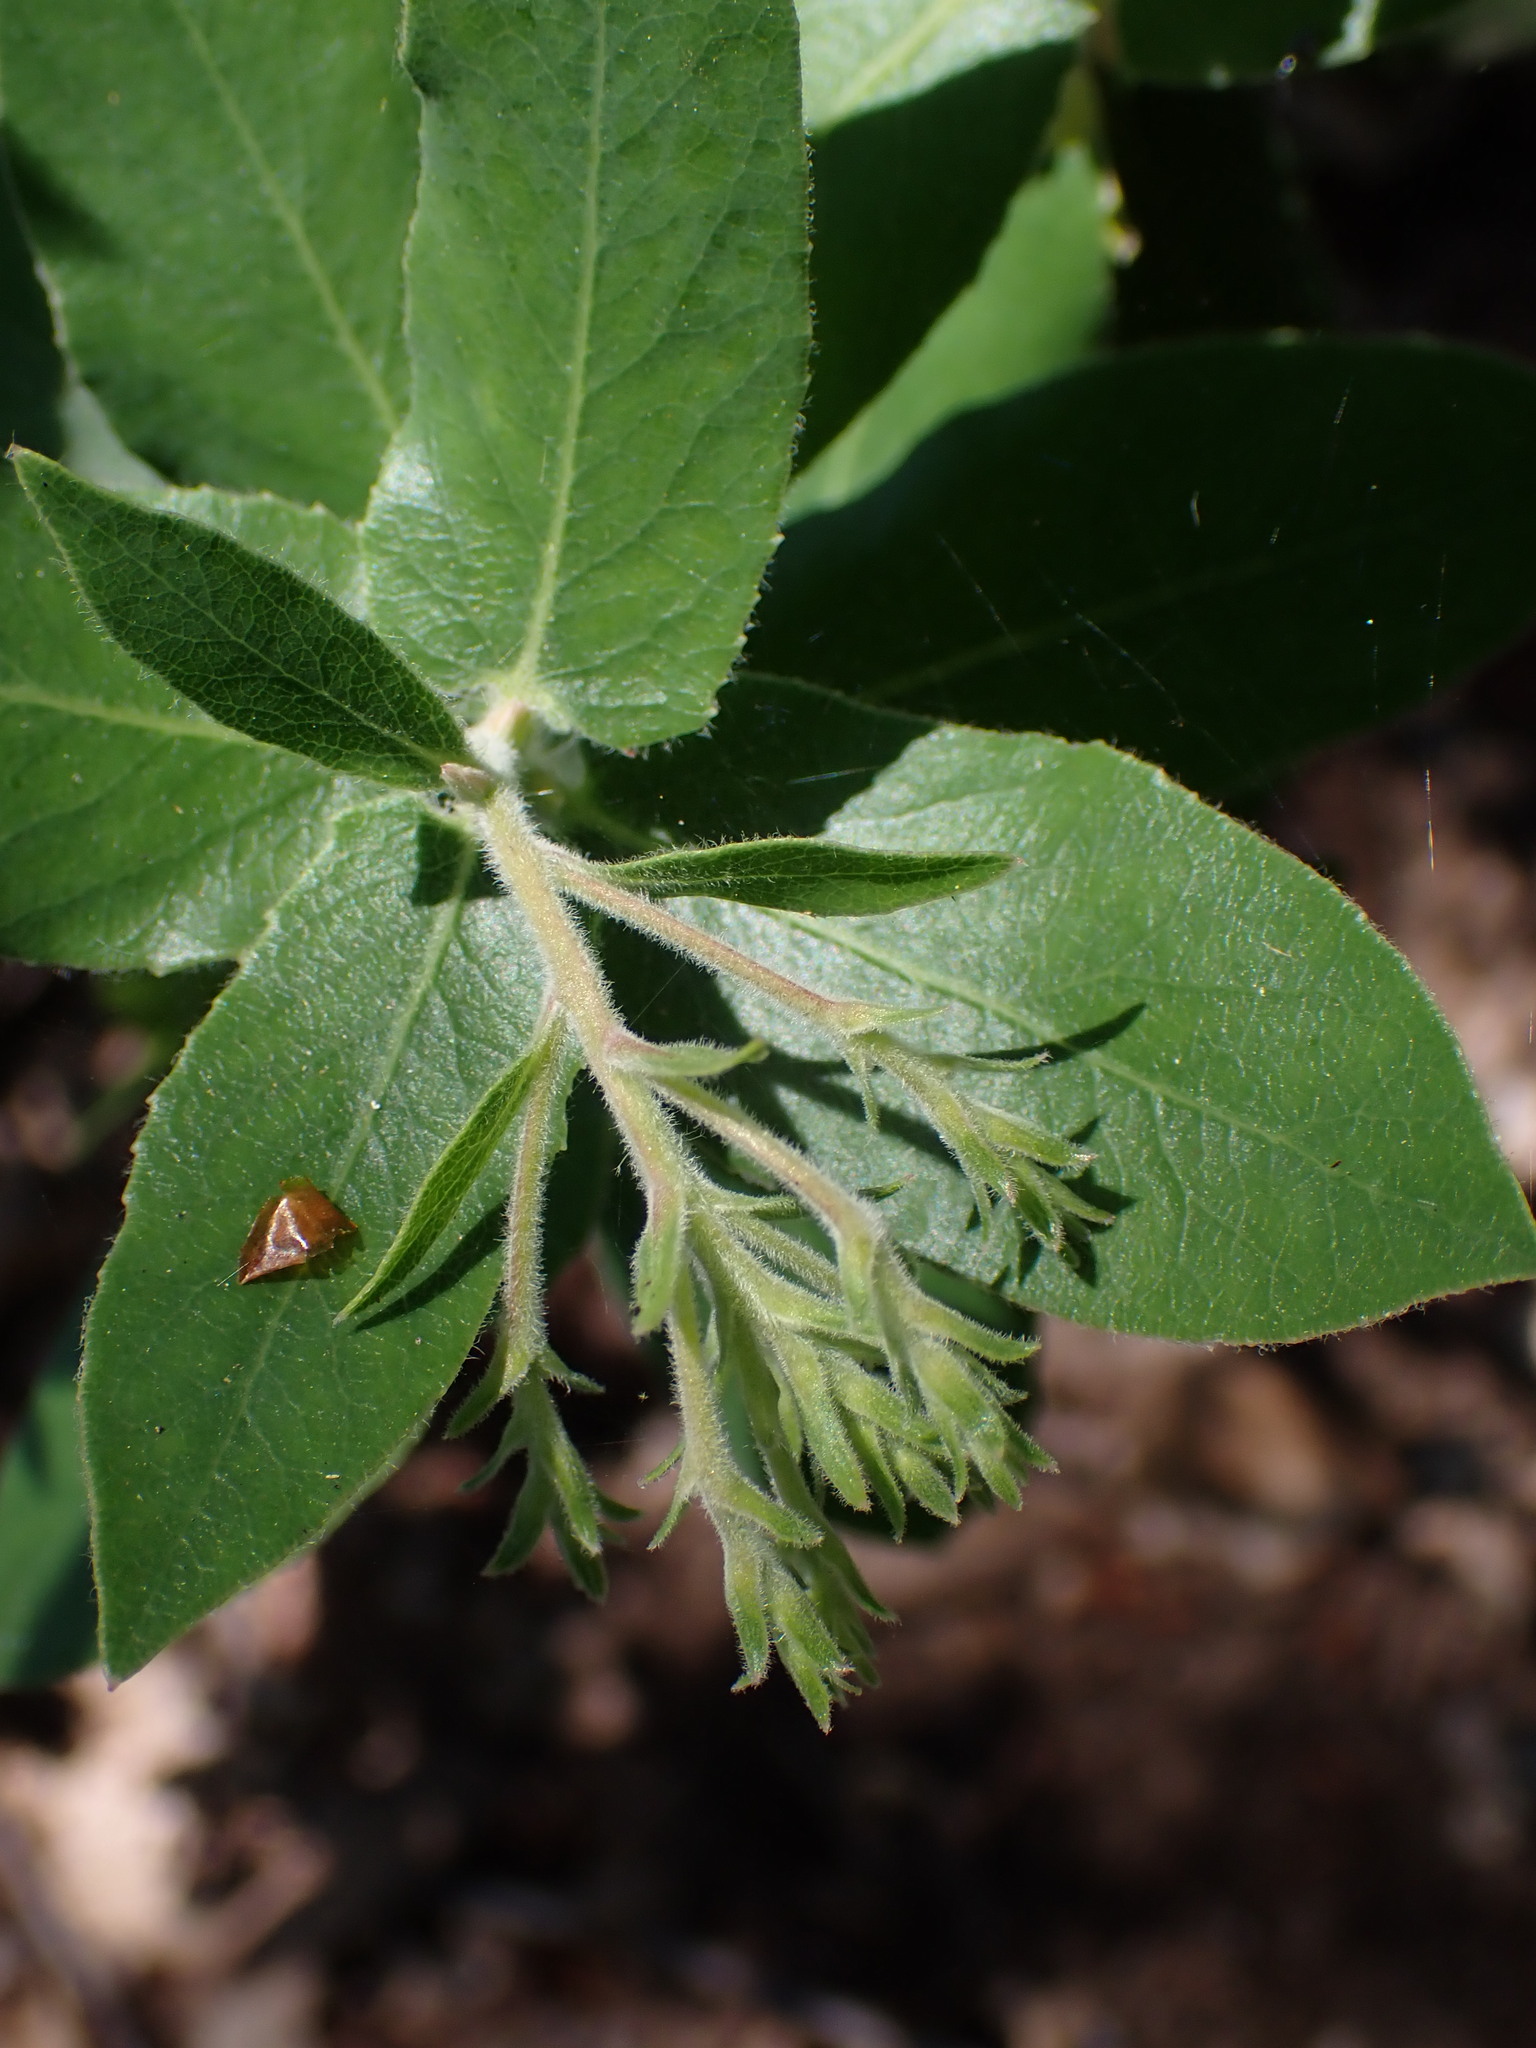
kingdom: Plantae
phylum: Tracheophyta
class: Magnoliopsida
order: Ericales
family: Ericaceae
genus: Arctostaphylos
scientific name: Arctostaphylos andersonii
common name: Santa cruz manzanita
